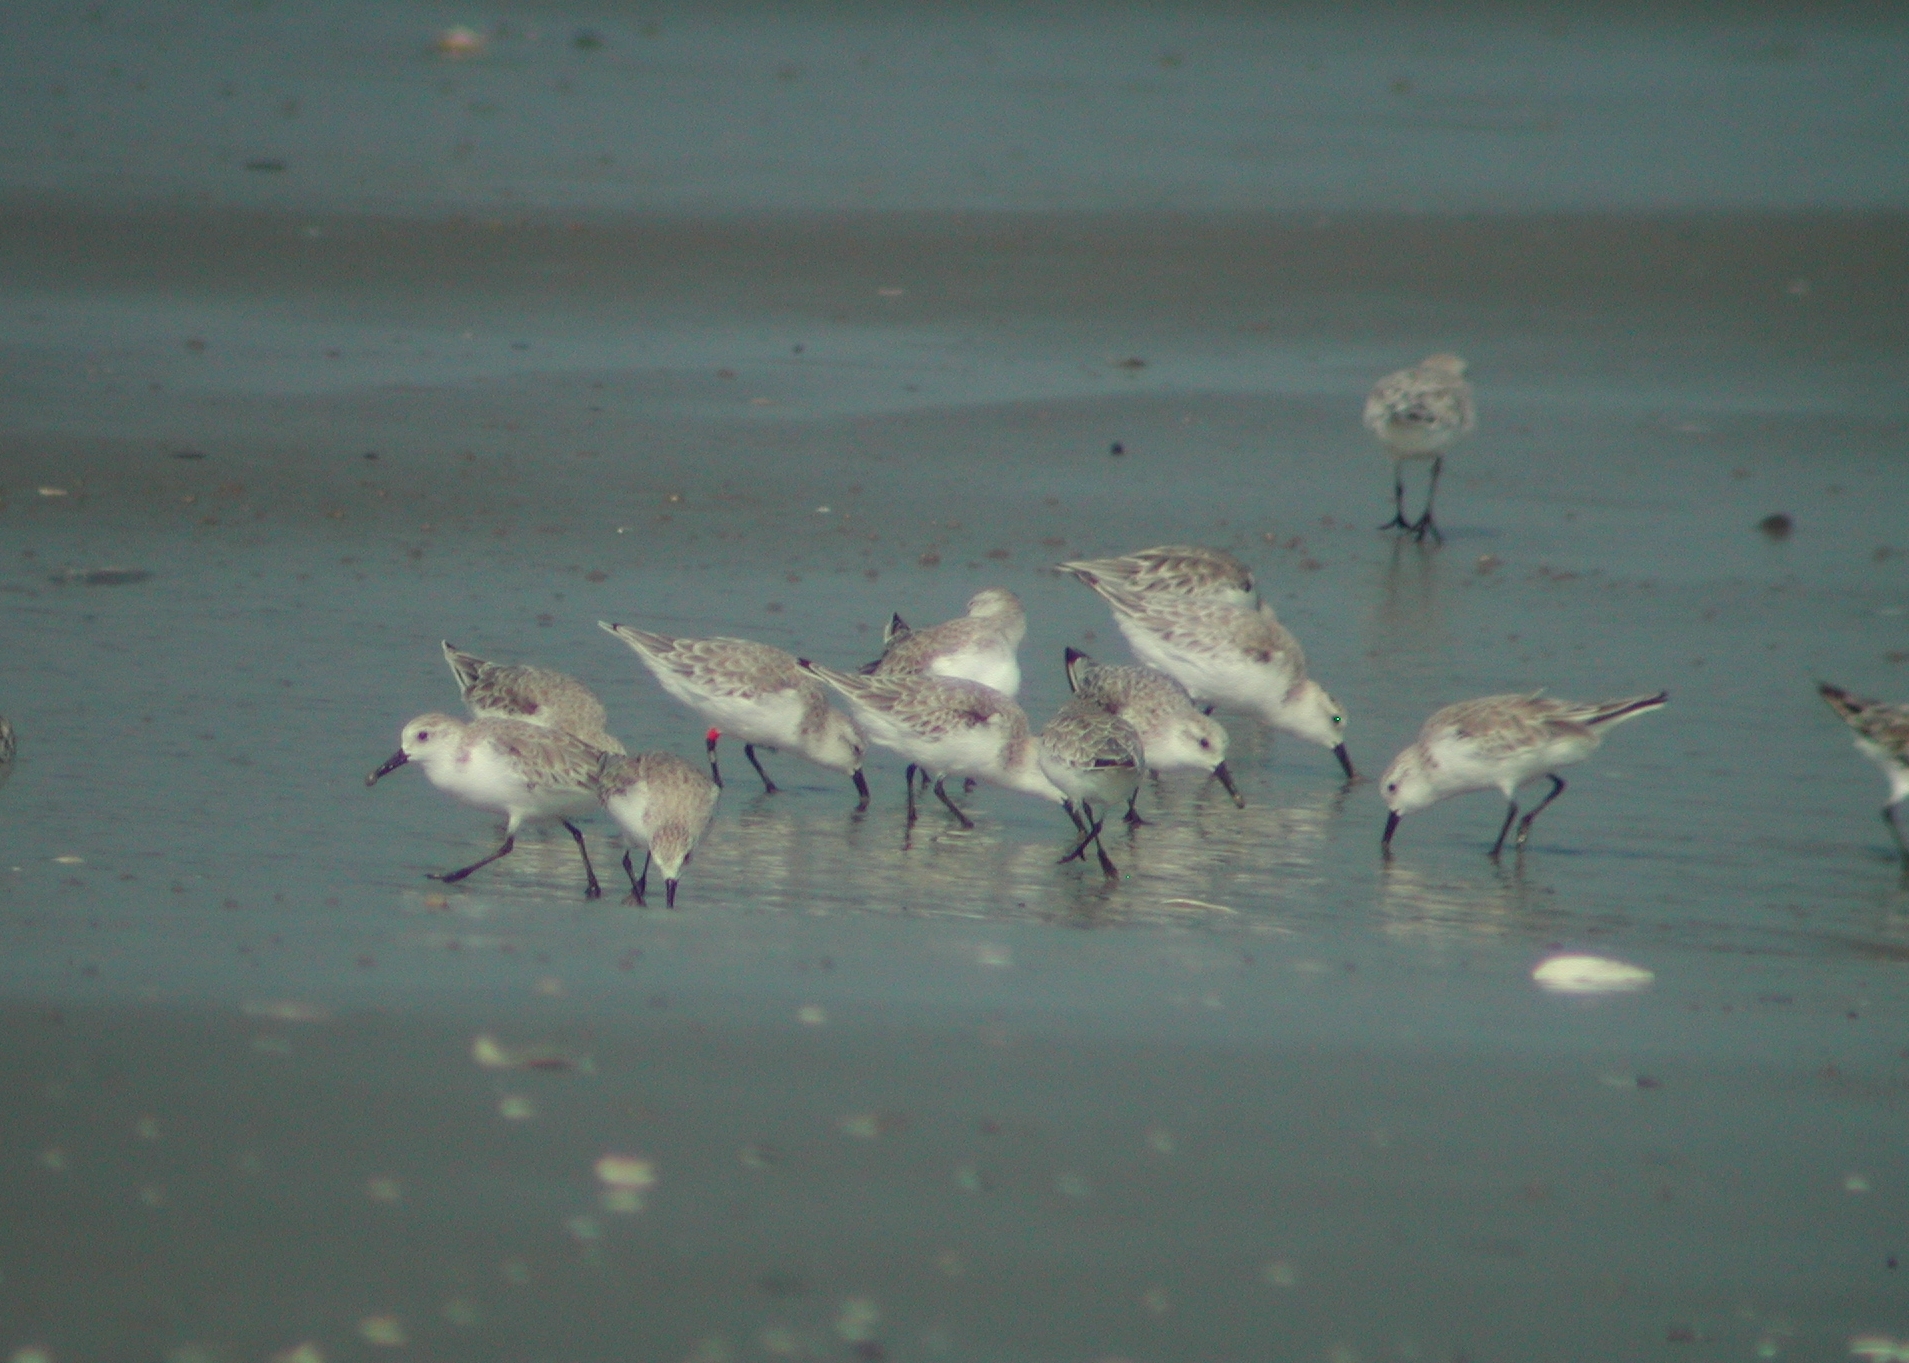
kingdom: Animalia
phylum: Chordata
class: Aves
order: Charadriiformes
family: Scolopacidae
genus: Calidris
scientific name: Calidris alba
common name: Sanderling
